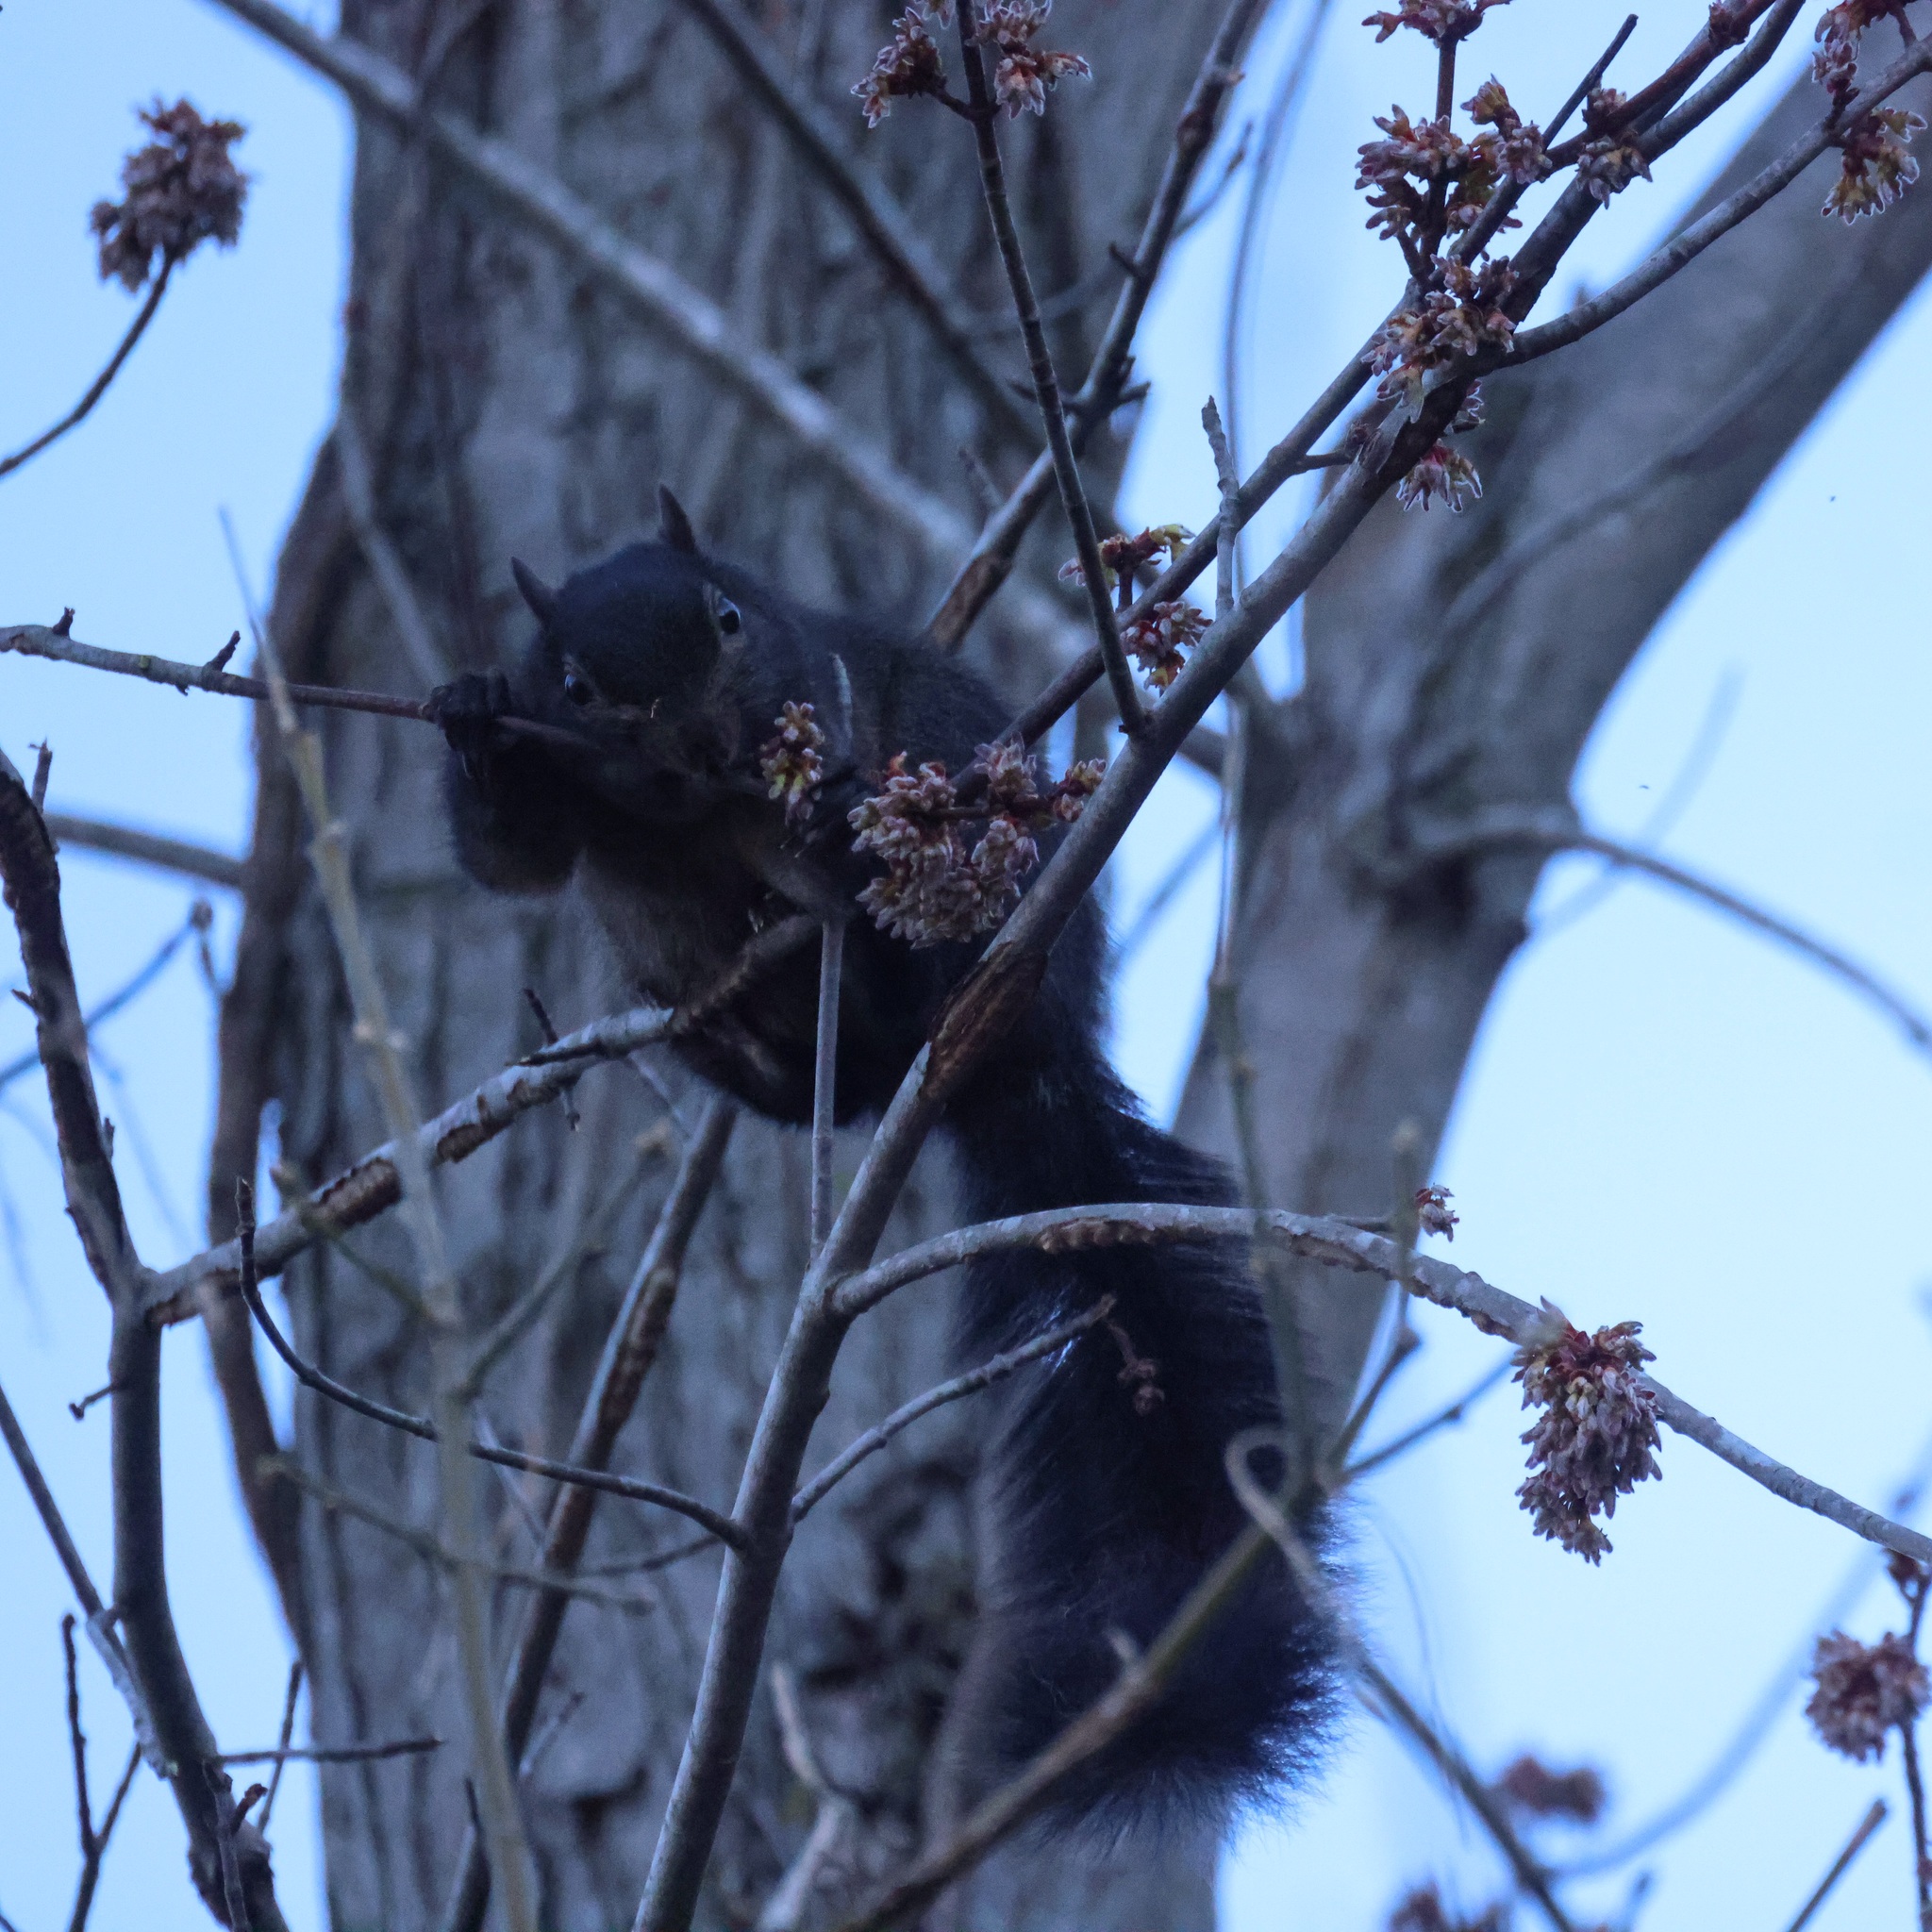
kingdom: Animalia
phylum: Chordata
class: Mammalia
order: Rodentia
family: Sciuridae
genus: Sciurus
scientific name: Sciurus carolinensis
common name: Eastern gray squirrel
